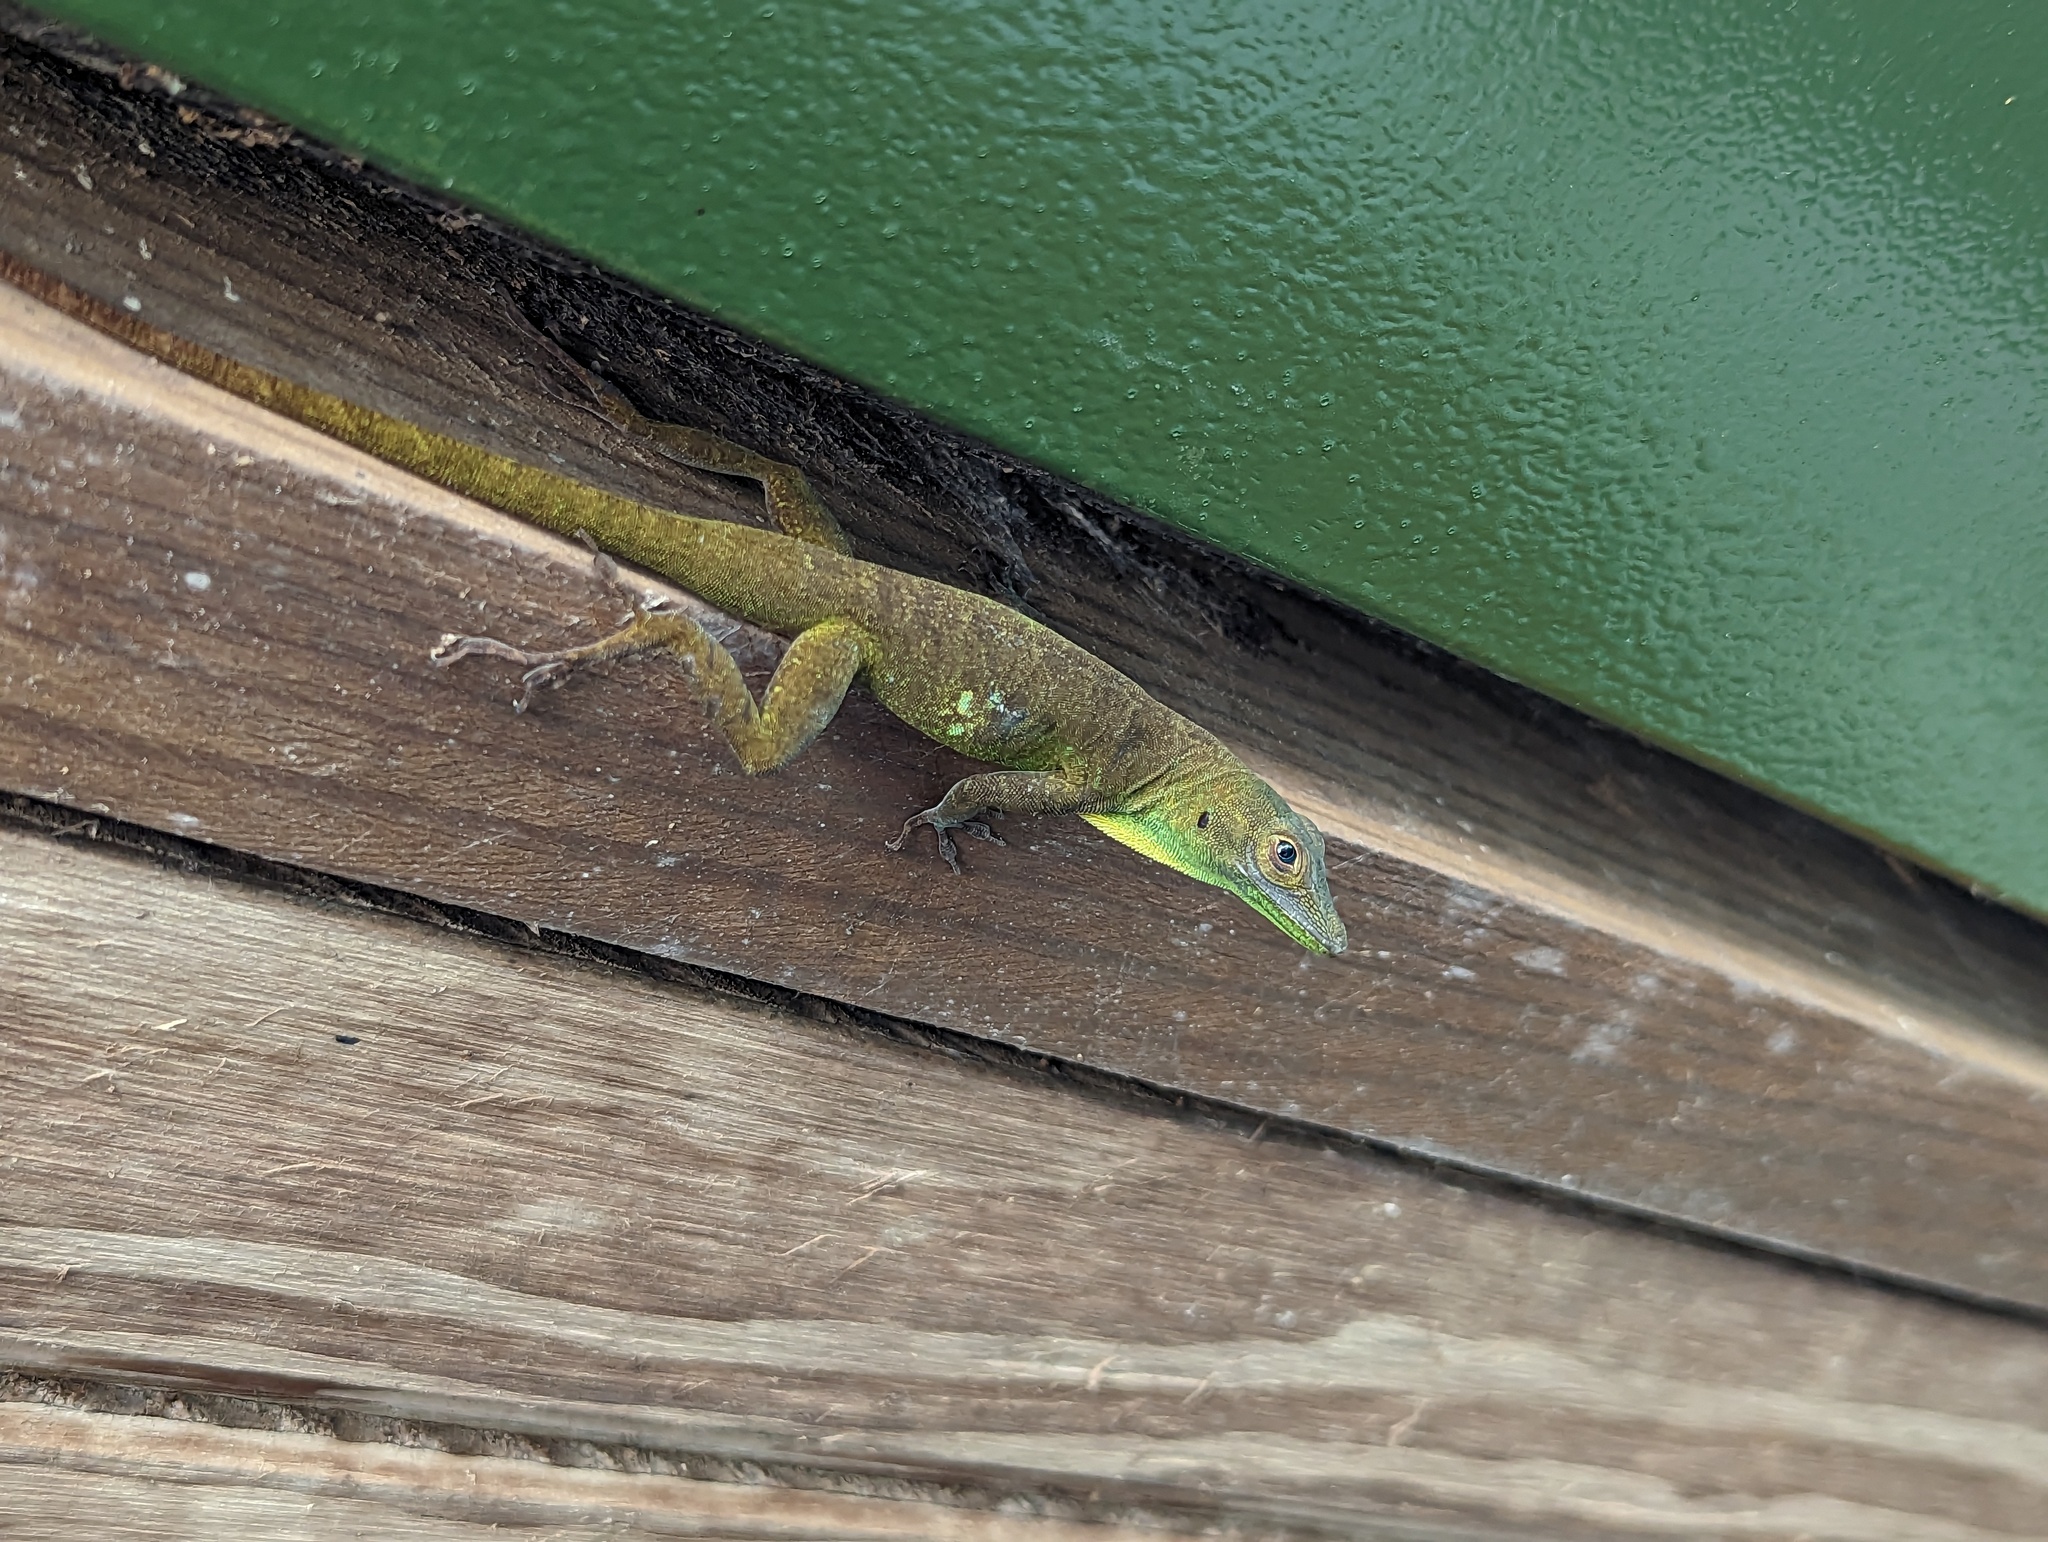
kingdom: Animalia
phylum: Chordata
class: Squamata
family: Dactyloidae
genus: Anolis
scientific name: Anolis evermanni
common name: Emerald anole
